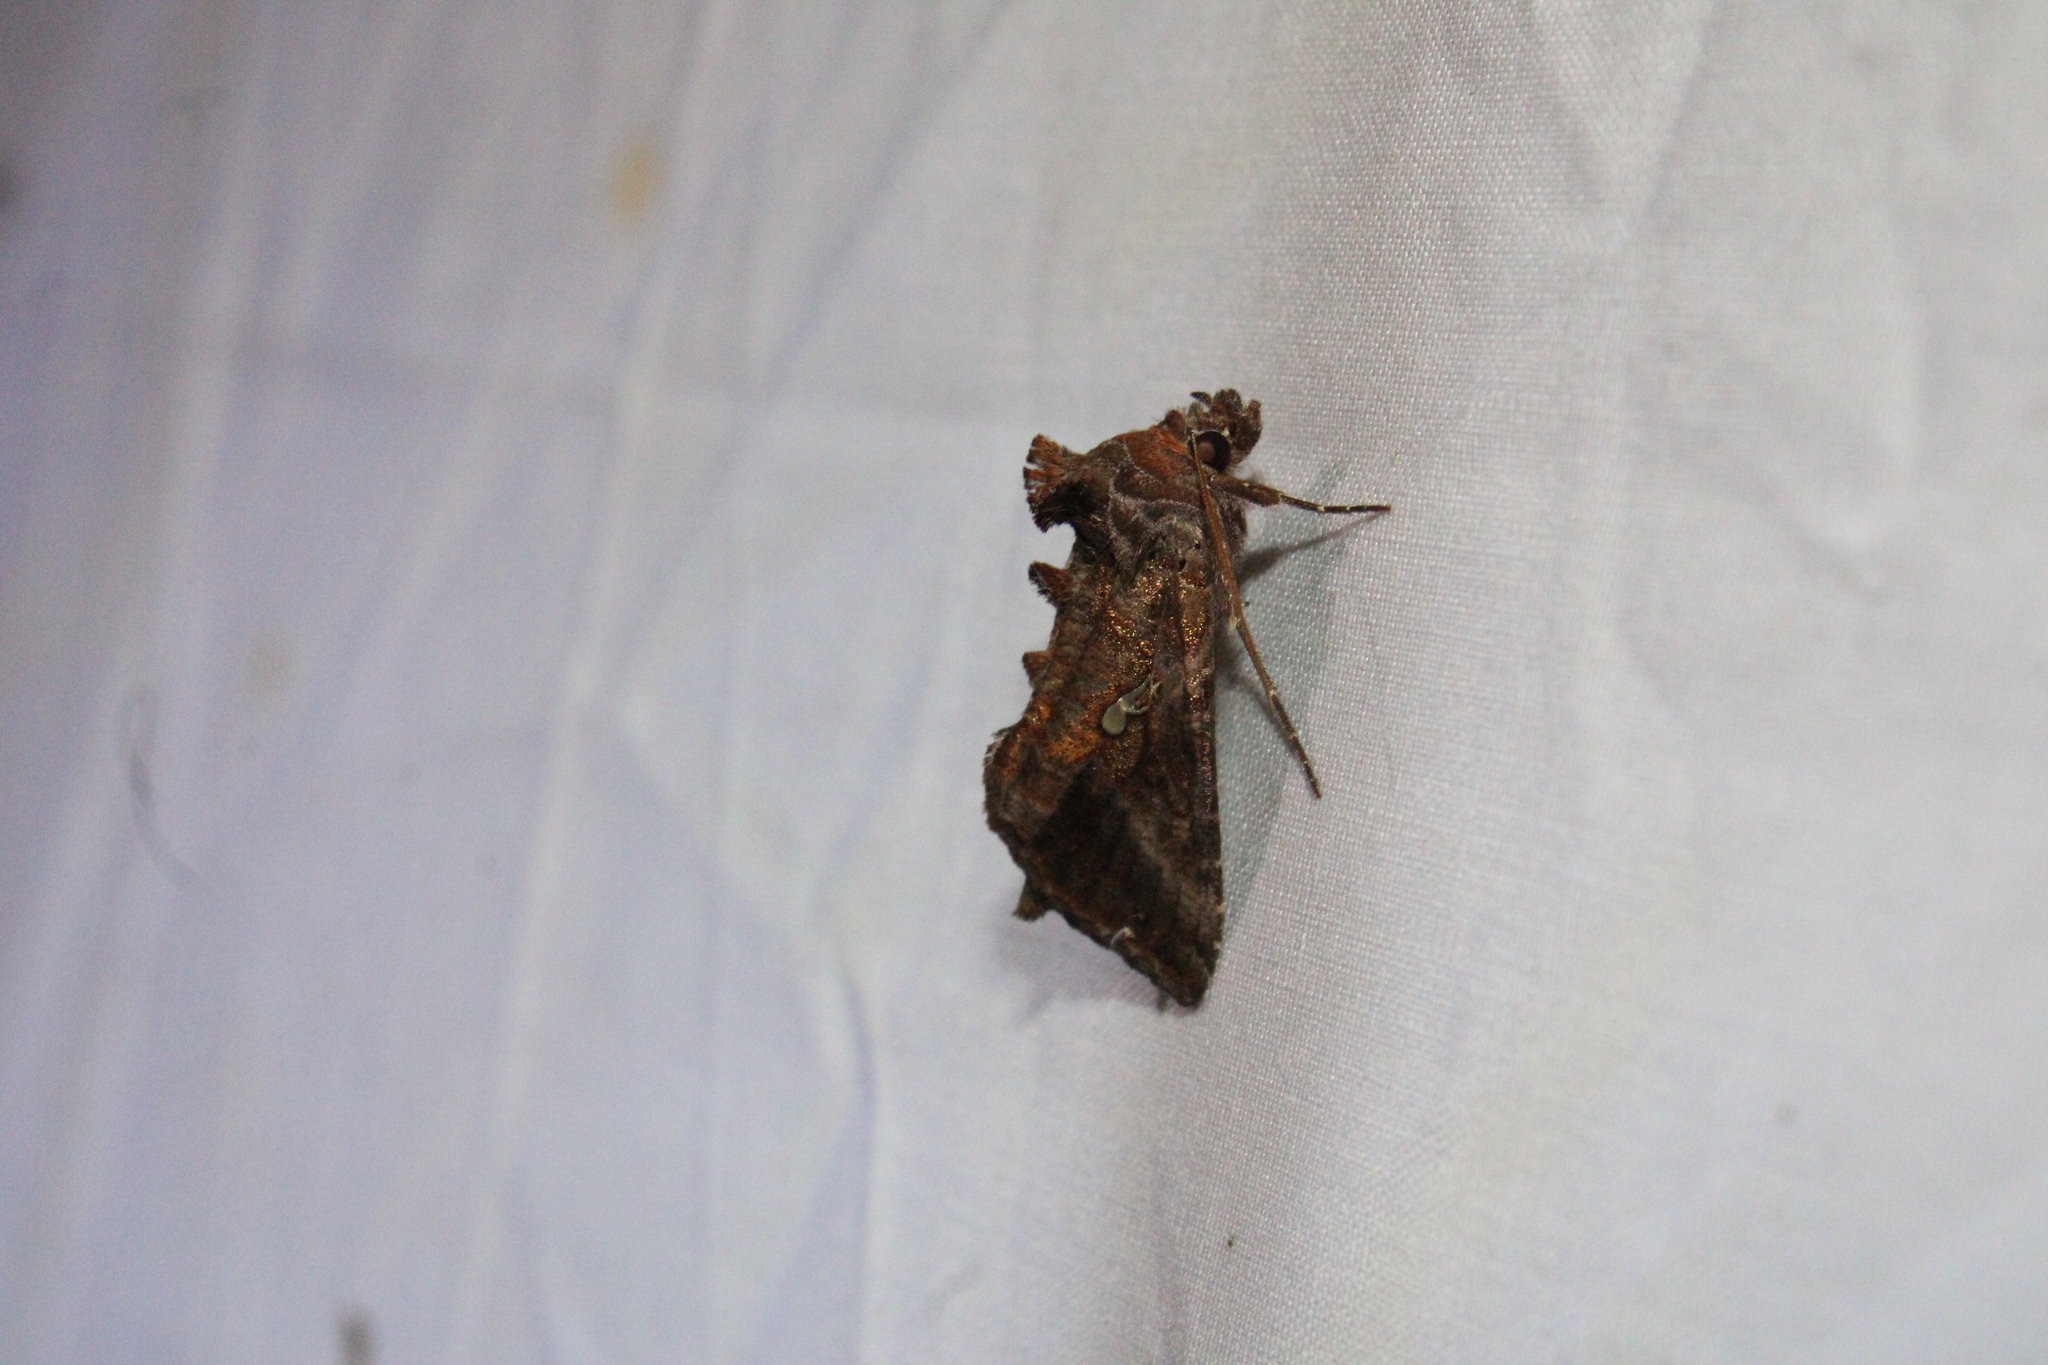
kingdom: Animalia
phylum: Arthropoda
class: Insecta
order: Lepidoptera
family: Noctuidae
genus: Chrysodeixis
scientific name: Chrysodeixis includens
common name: Cutworm moth
